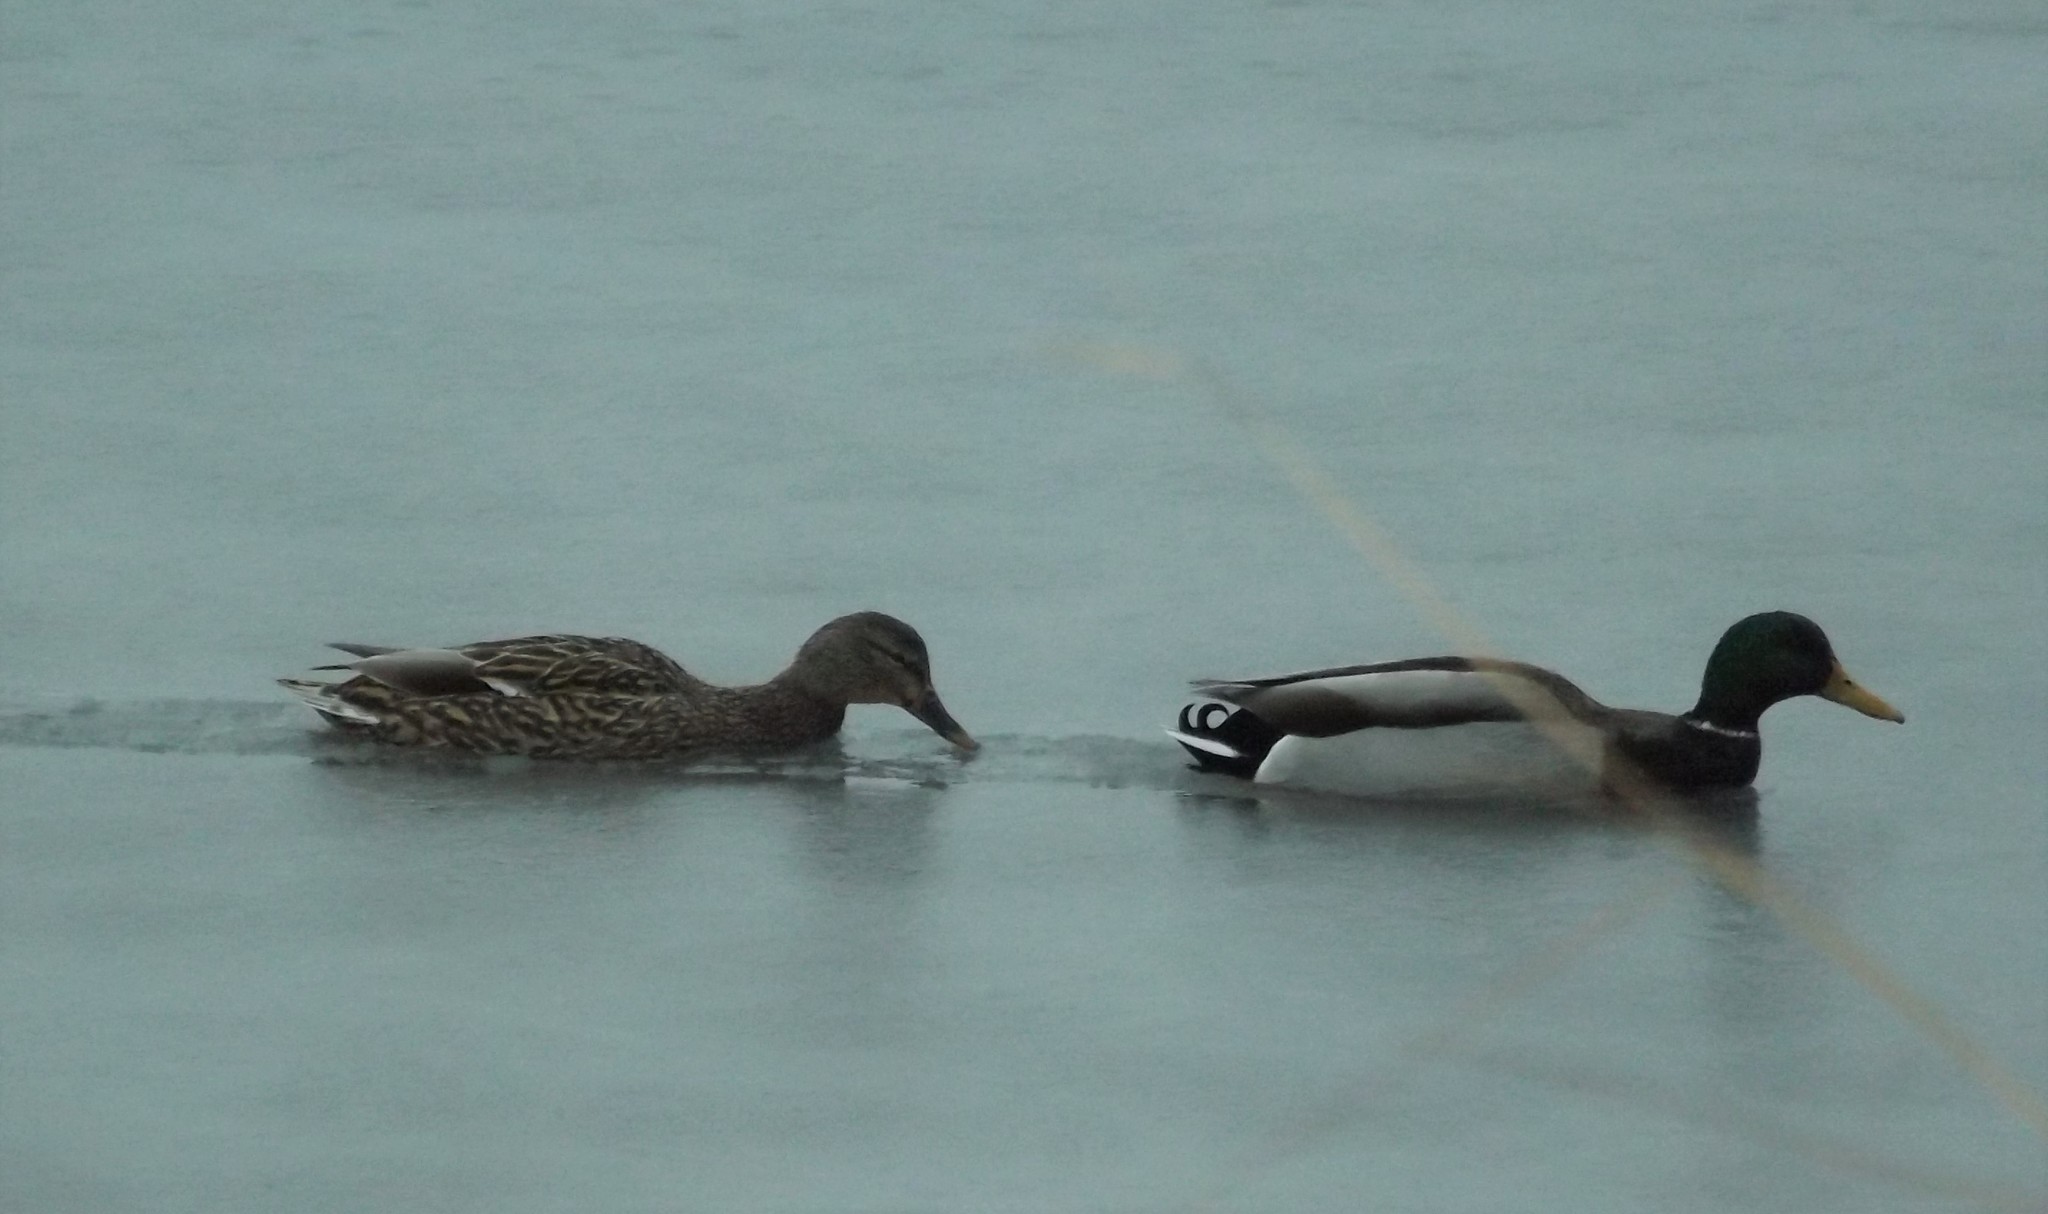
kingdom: Animalia
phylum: Chordata
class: Aves
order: Anseriformes
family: Anatidae
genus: Anas
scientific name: Anas platyrhynchos
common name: Mallard
